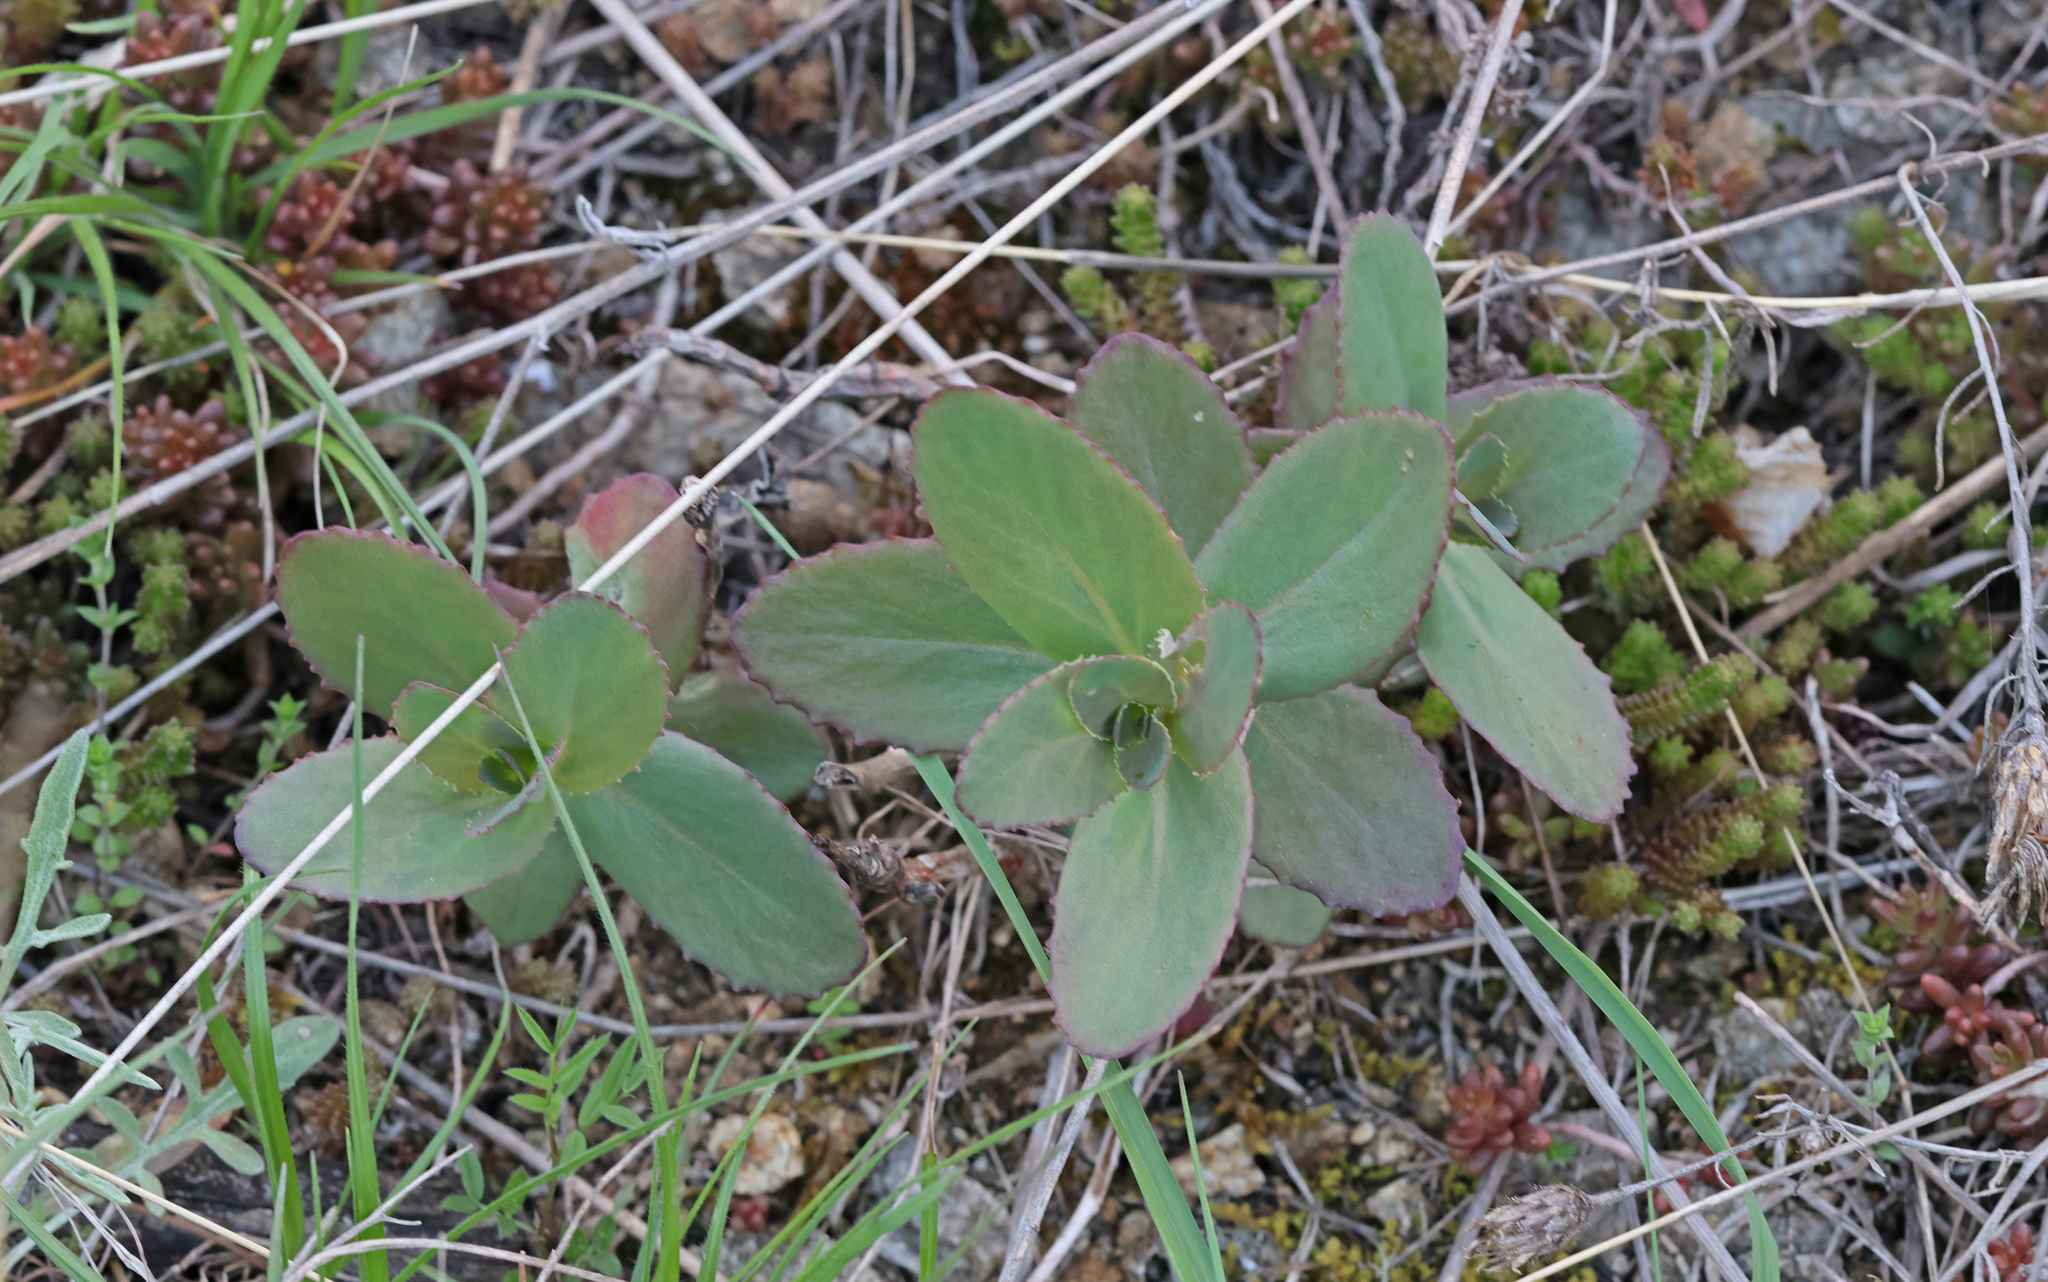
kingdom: Plantae
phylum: Tracheophyta
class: Magnoliopsida
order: Saxifragales
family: Crassulaceae
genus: Hylotelephium
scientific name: Hylotelephium maximum
